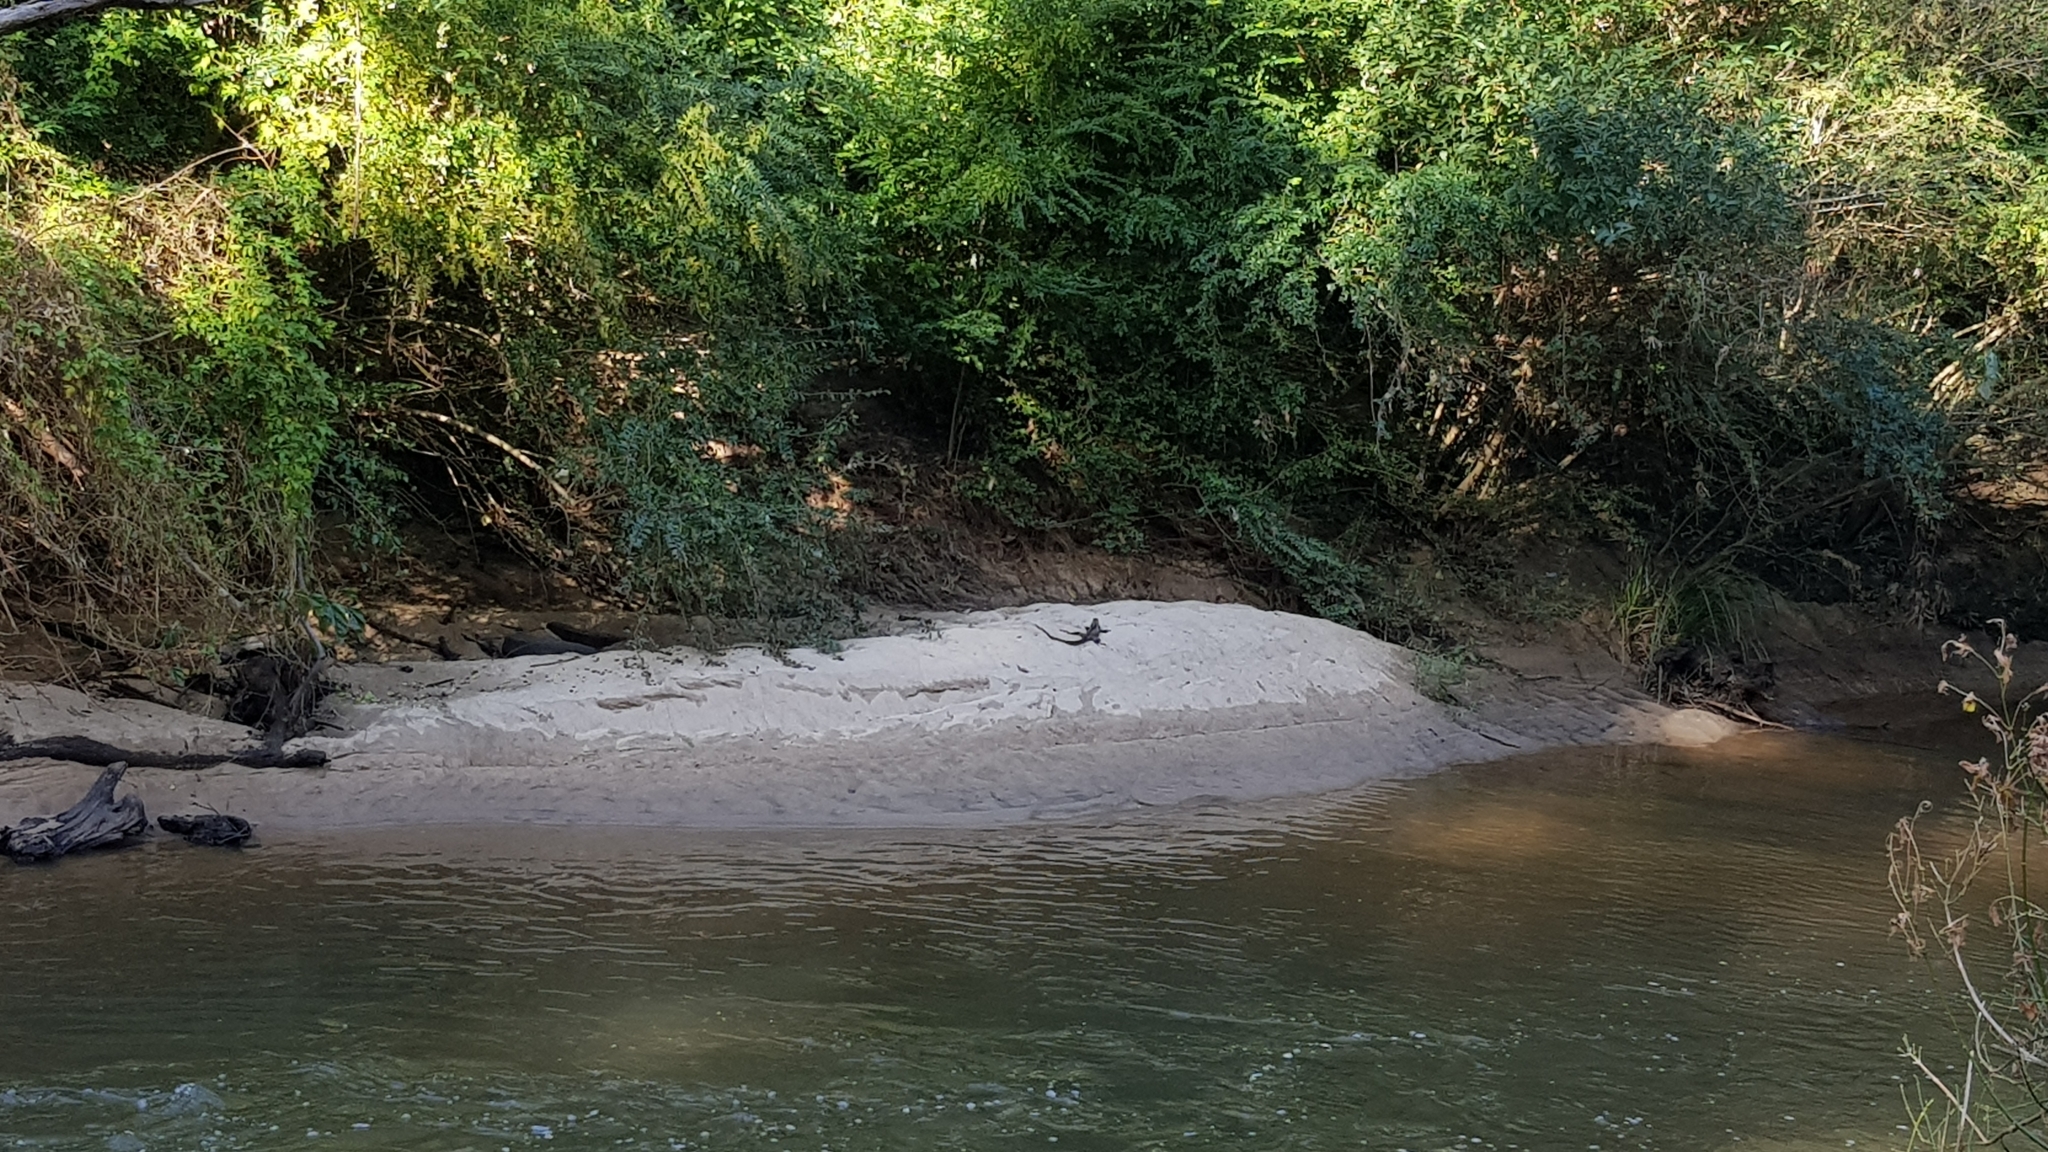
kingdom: Animalia
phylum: Chordata
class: Squamata
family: Agamidae
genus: Intellagama
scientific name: Intellagama lesueurii
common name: Eastern water dragon
